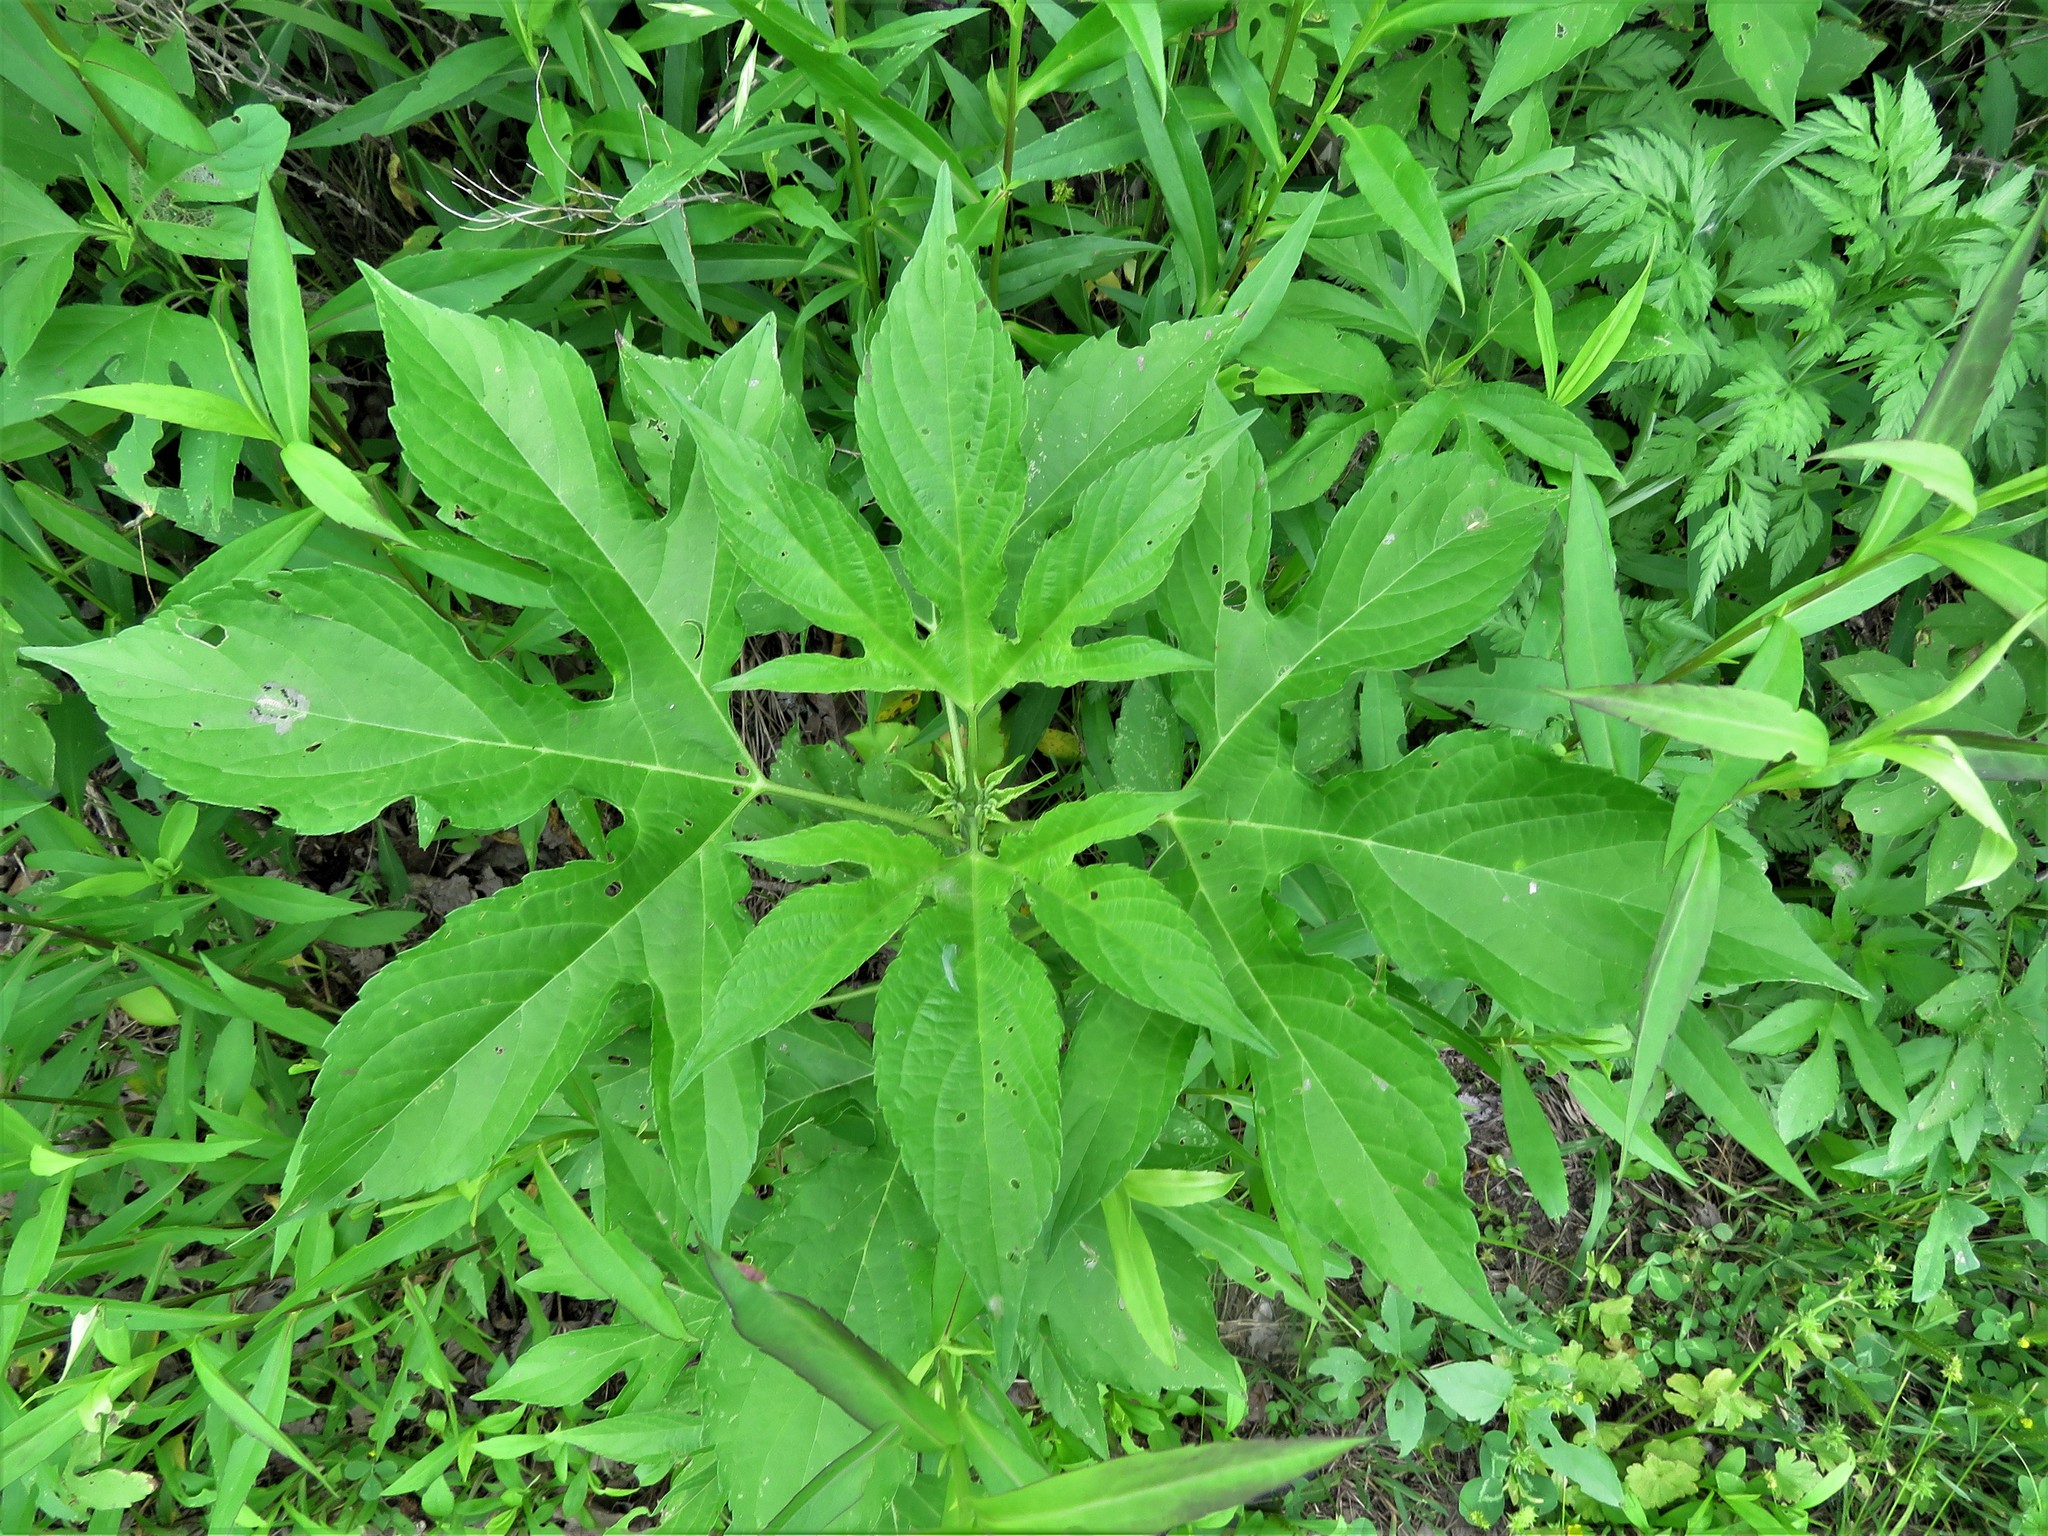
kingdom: Plantae
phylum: Tracheophyta
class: Magnoliopsida
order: Asterales
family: Asteraceae
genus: Ambrosia
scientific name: Ambrosia trifida
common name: Giant ragweed
